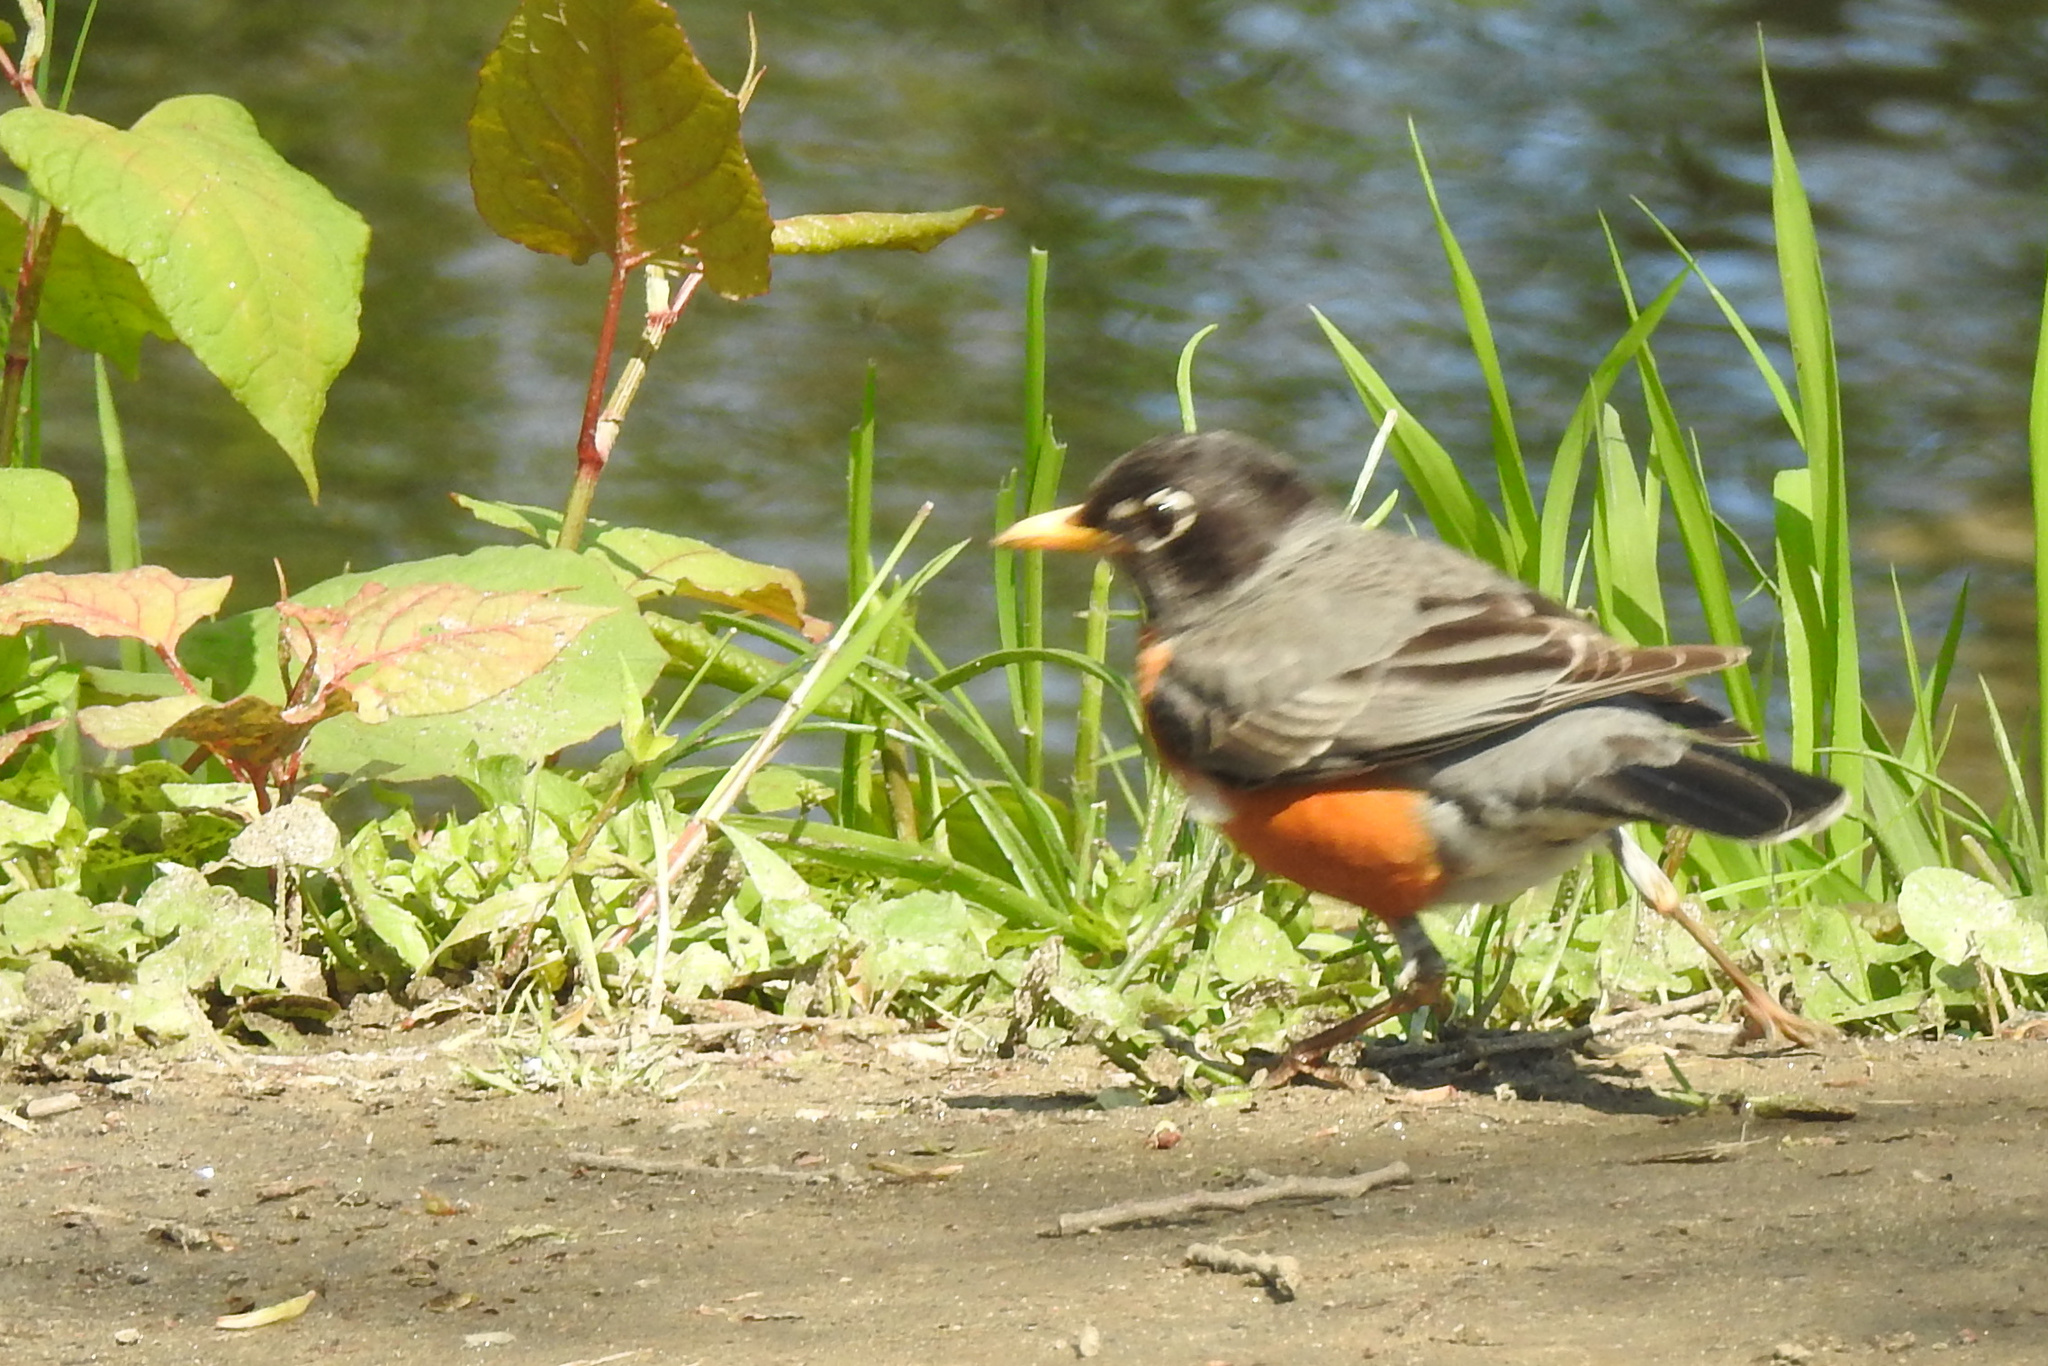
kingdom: Animalia
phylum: Chordata
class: Aves
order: Passeriformes
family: Turdidae
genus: Turdus
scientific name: Turdus migratorius
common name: American robin
